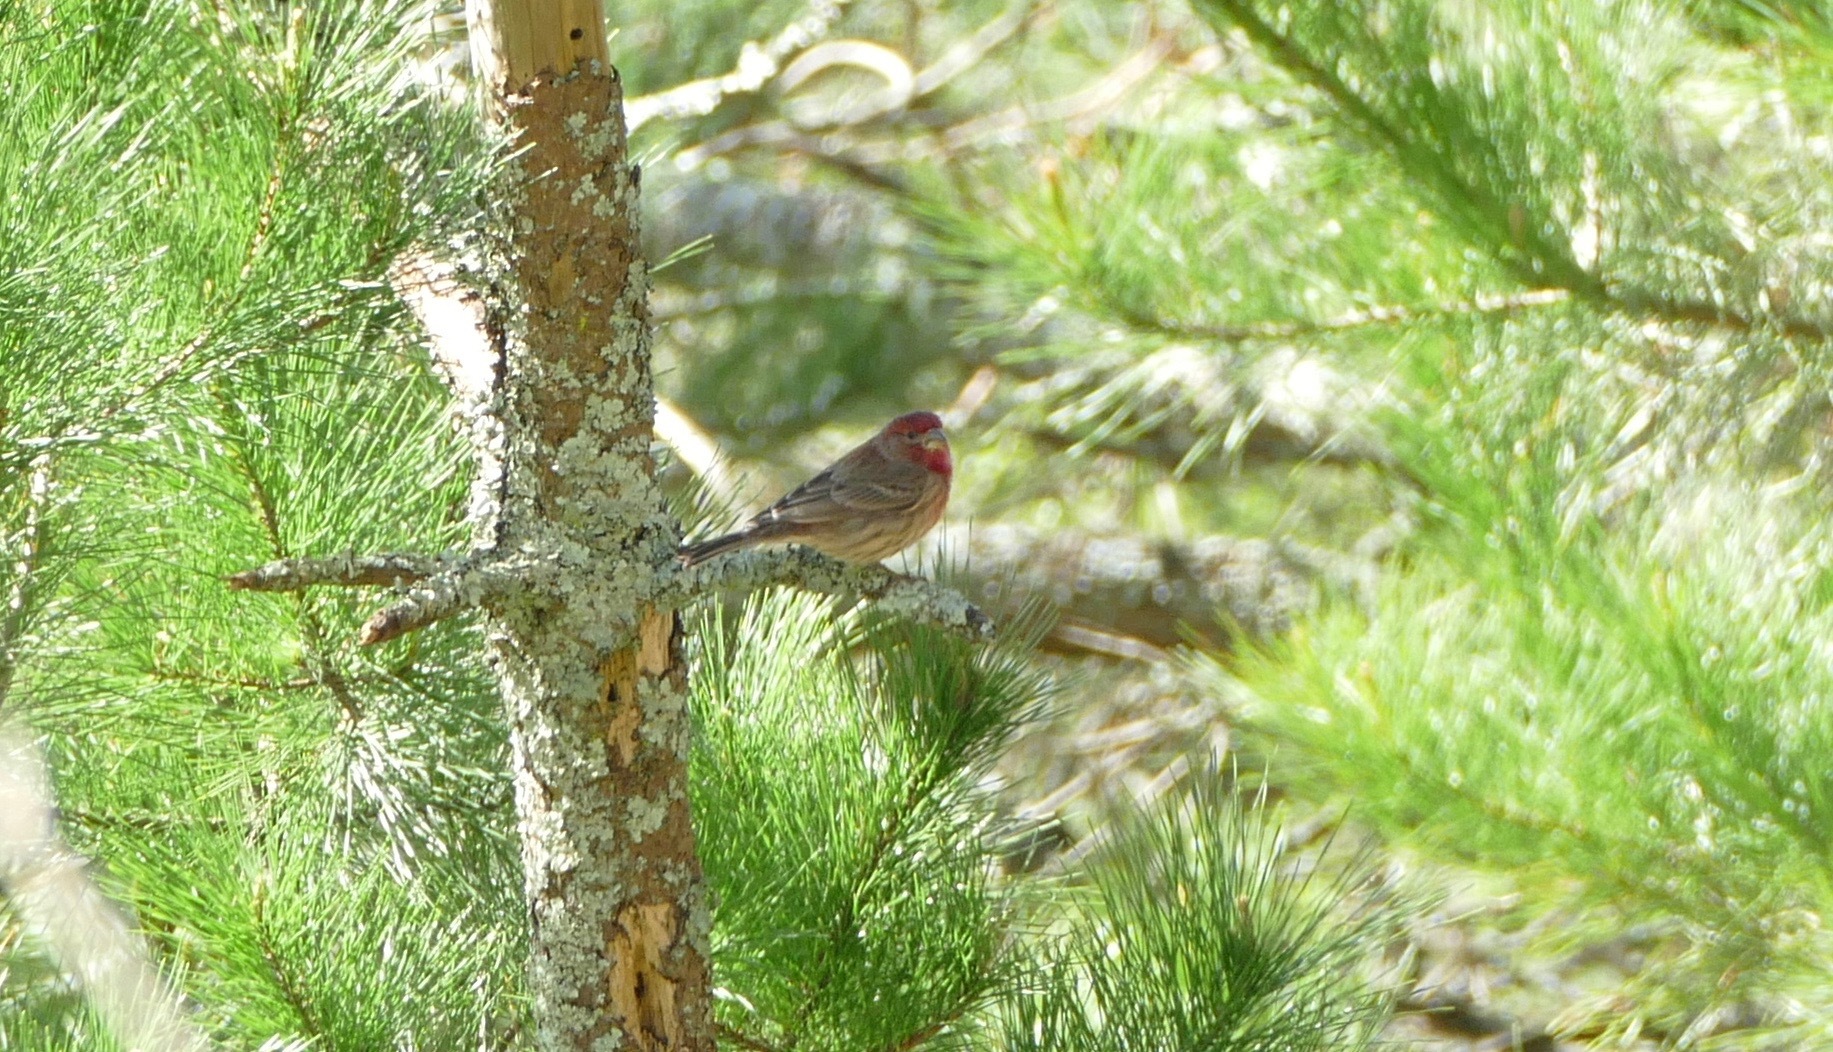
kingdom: Animalia
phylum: Chordata
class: Aves
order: Passeriformes
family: Fringillidae
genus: Haemorhous
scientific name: Haemorhous mexicanus
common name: House finch
